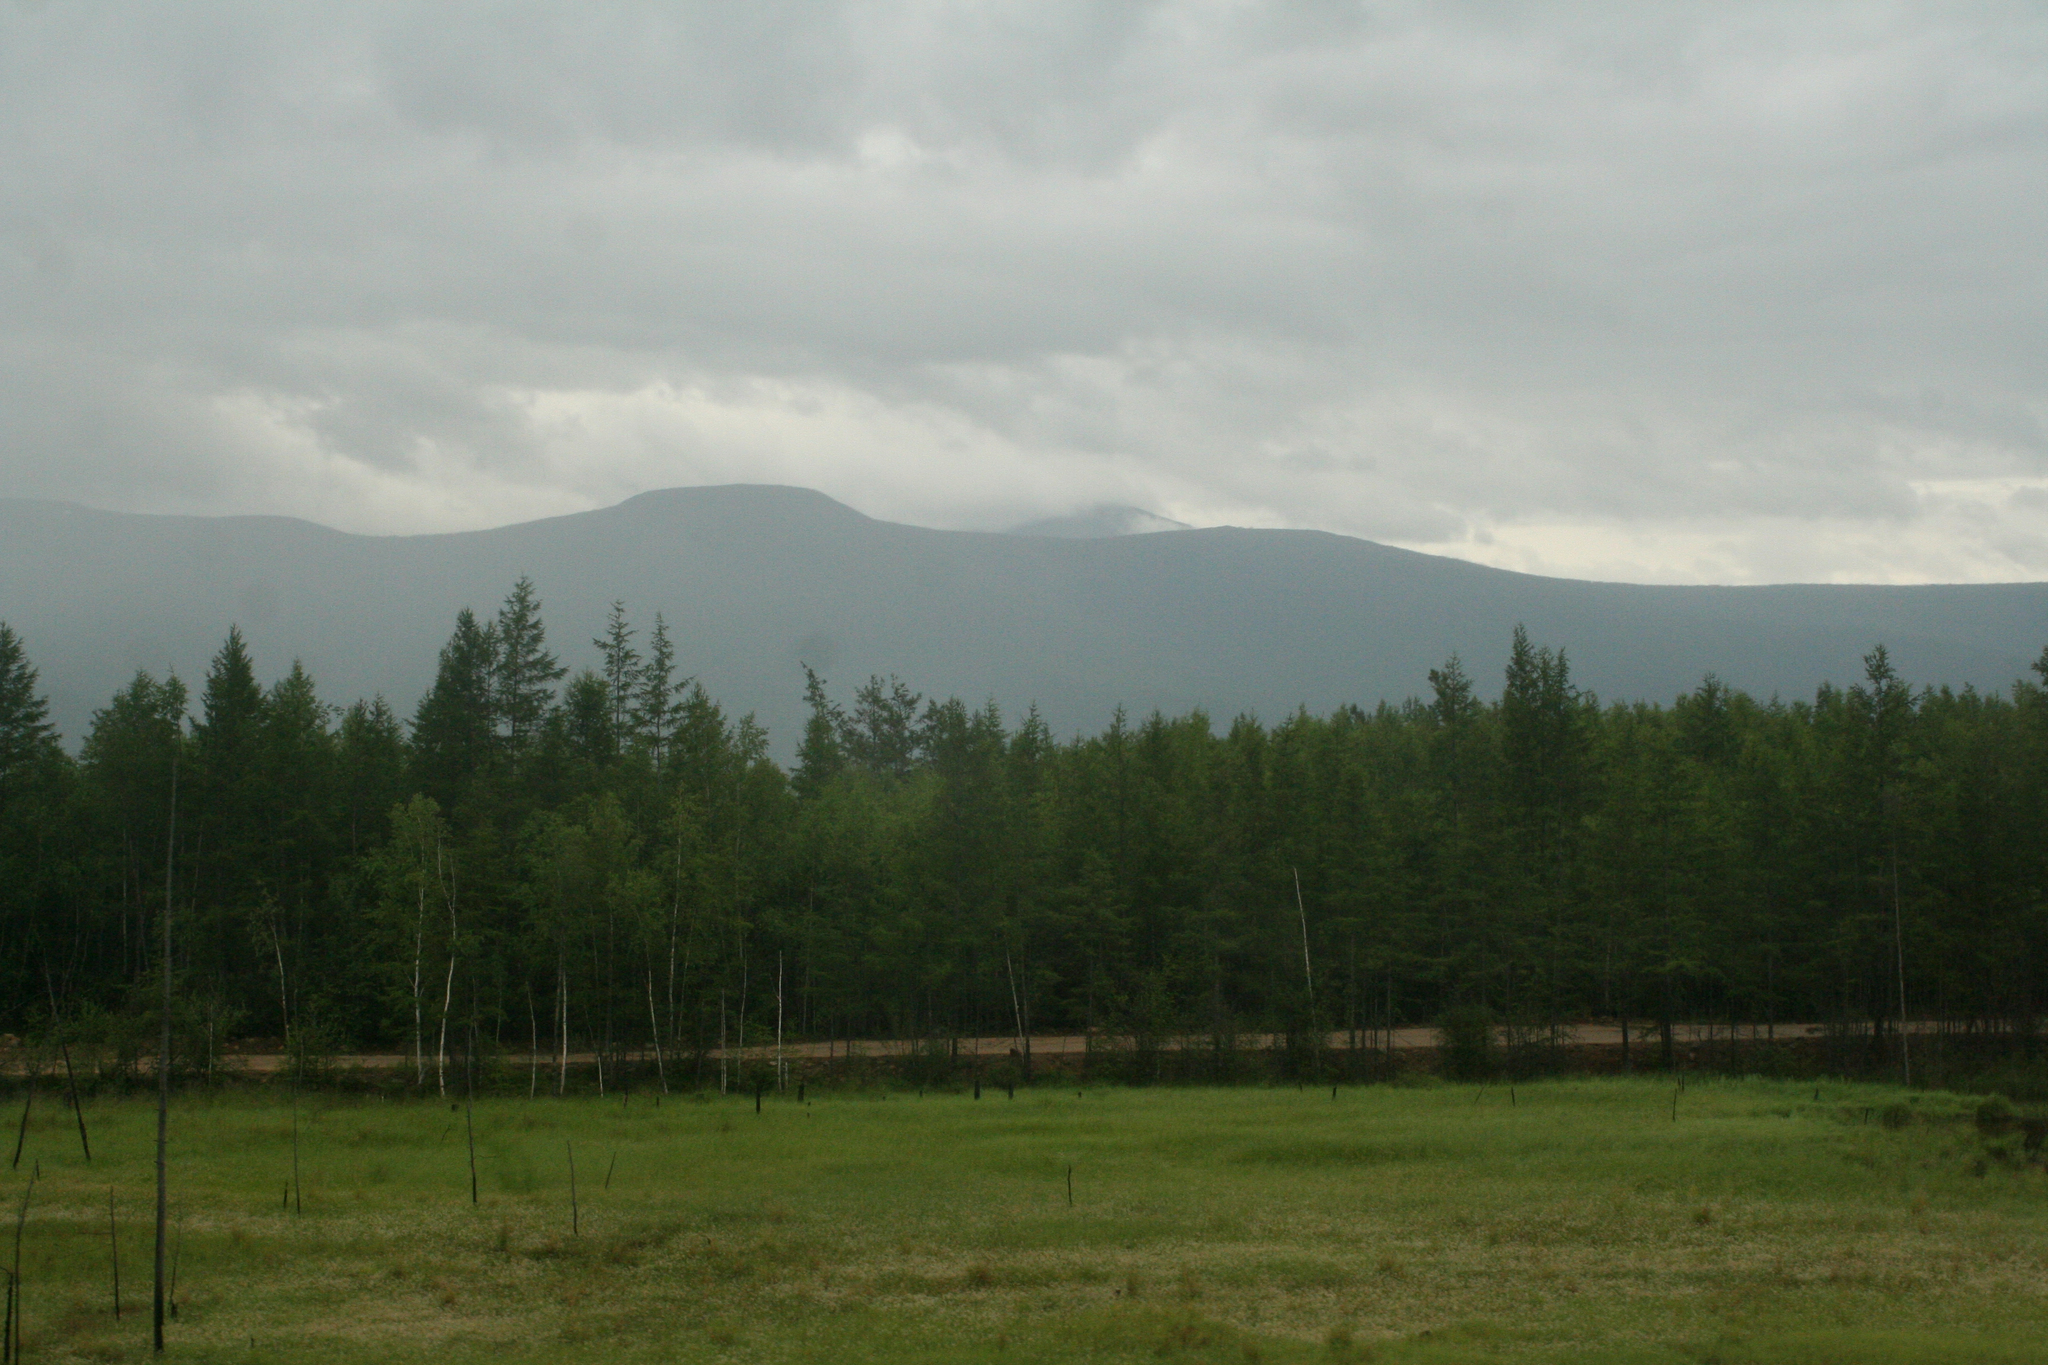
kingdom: Plantae
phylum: Tracheophyta
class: Pinopsida
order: Pinales
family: Pinaceae
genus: Larix
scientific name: Larix gmelinii
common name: Dahurian larch
